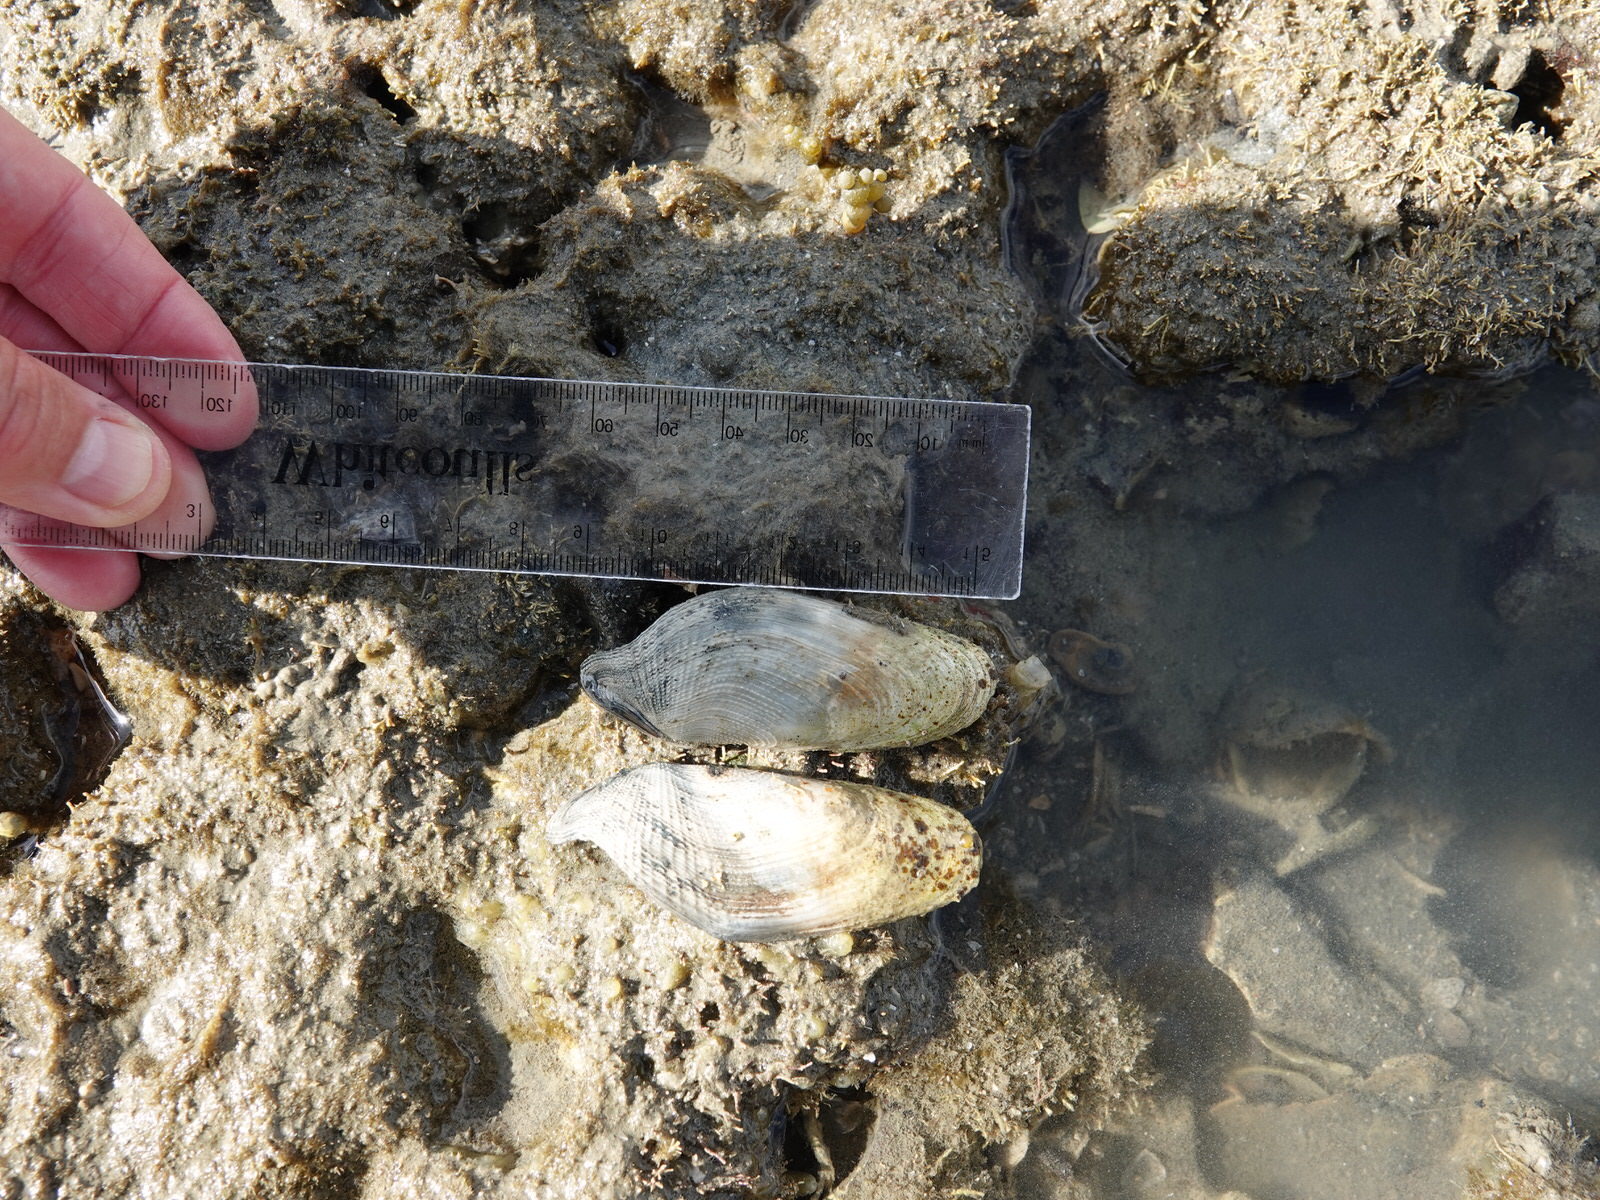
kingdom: Animalia
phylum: Mollusca
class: Bivalvia
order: Myida
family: Pholadidae
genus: Barnea
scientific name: Barnea similis
